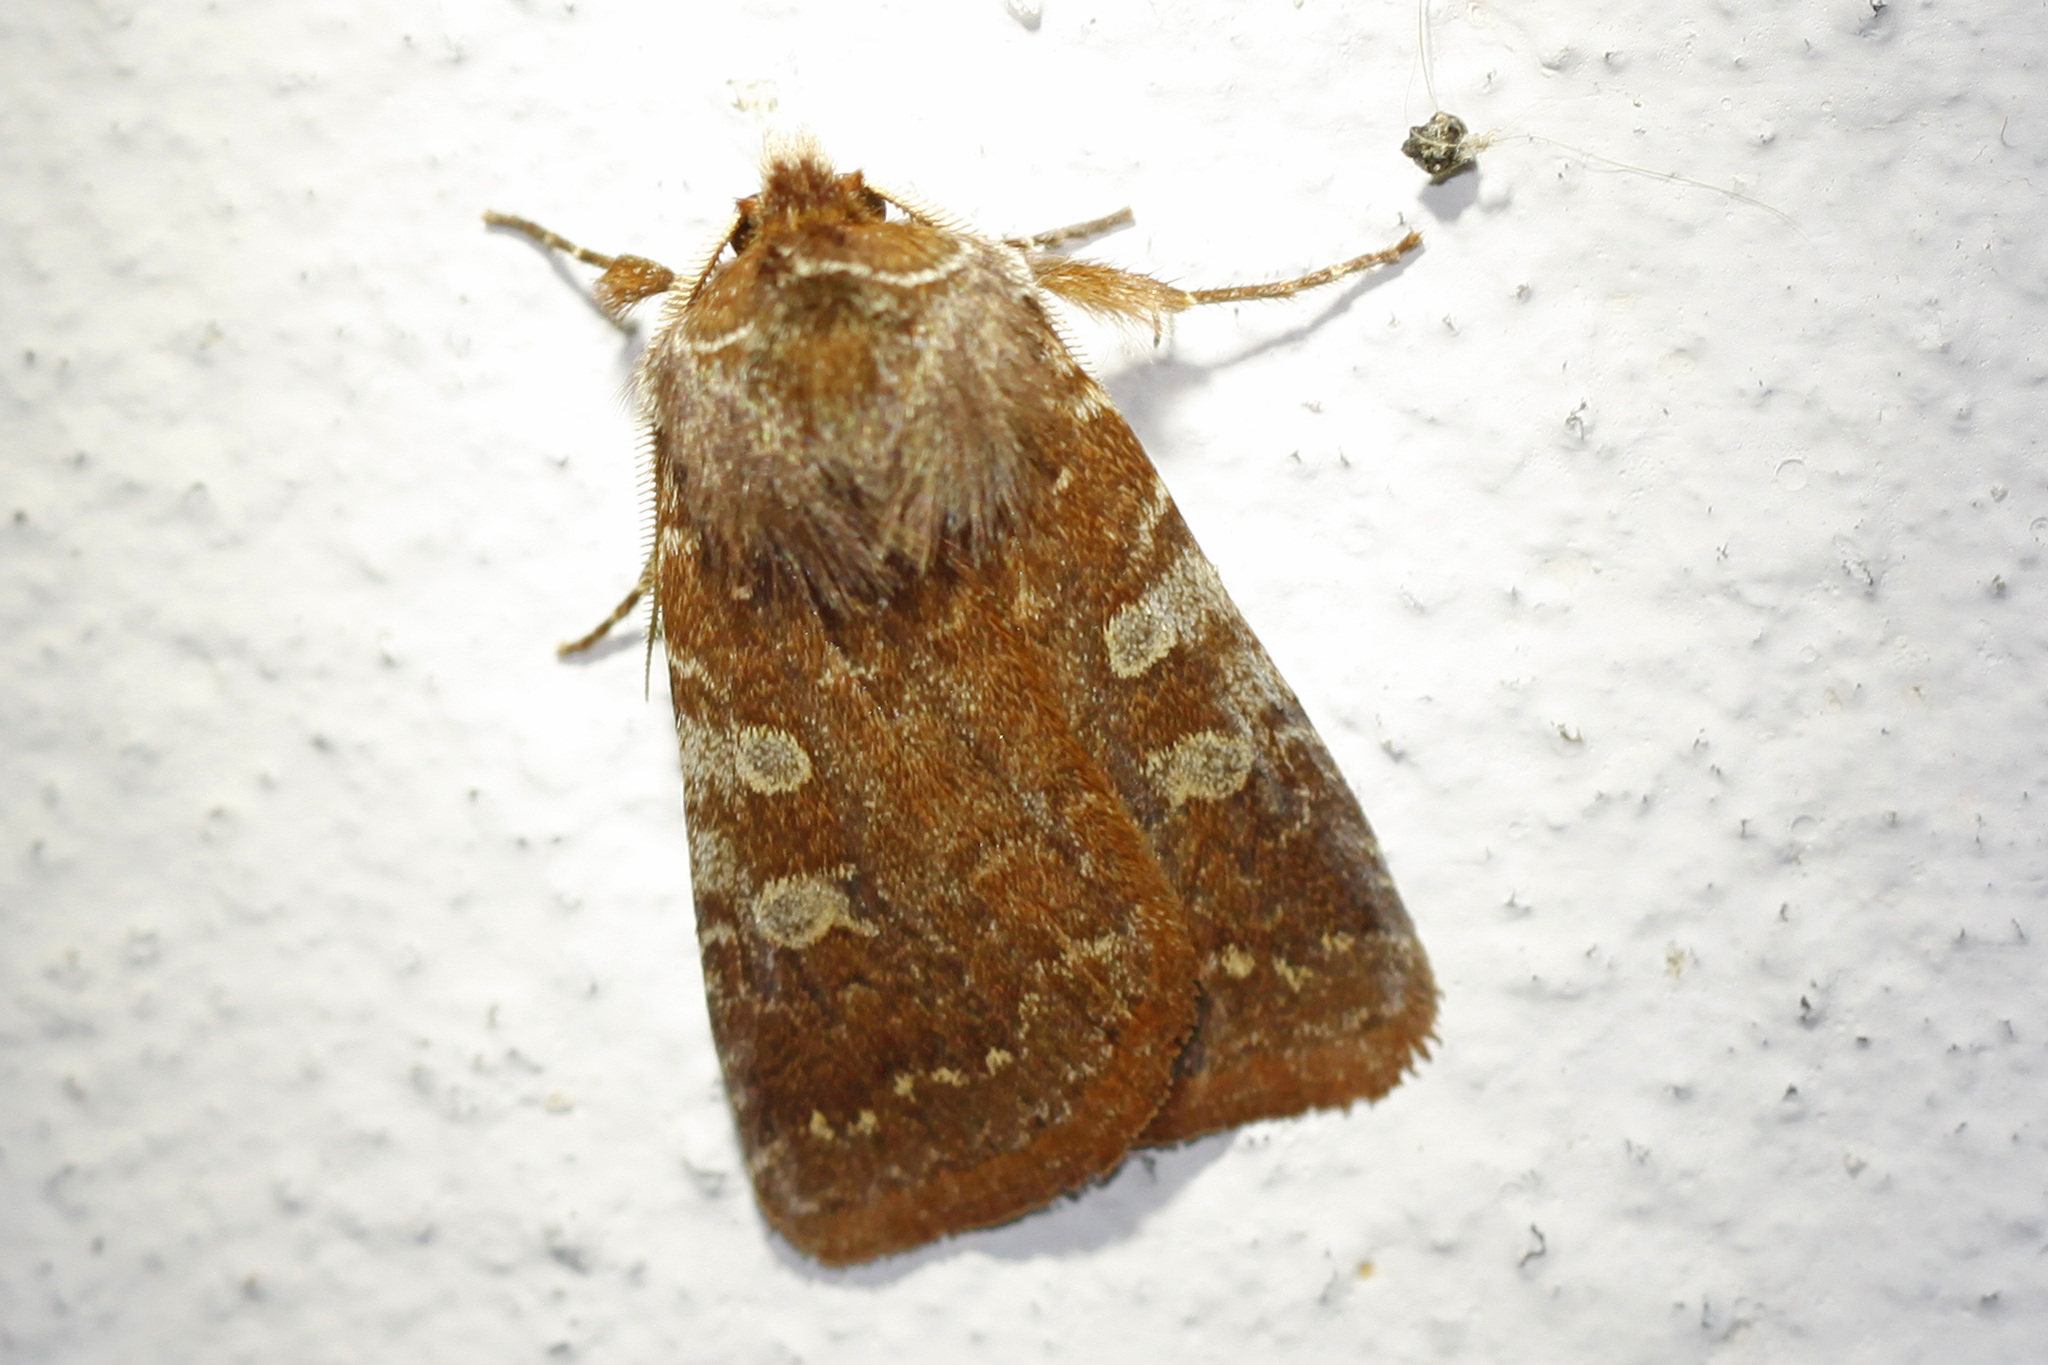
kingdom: Animalia
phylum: Arthropoda
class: Insecta
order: Lepidoptera
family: Noctuidae
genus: Cerastis
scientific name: Cerastis tenebrifera
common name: Reddish speckled dart
